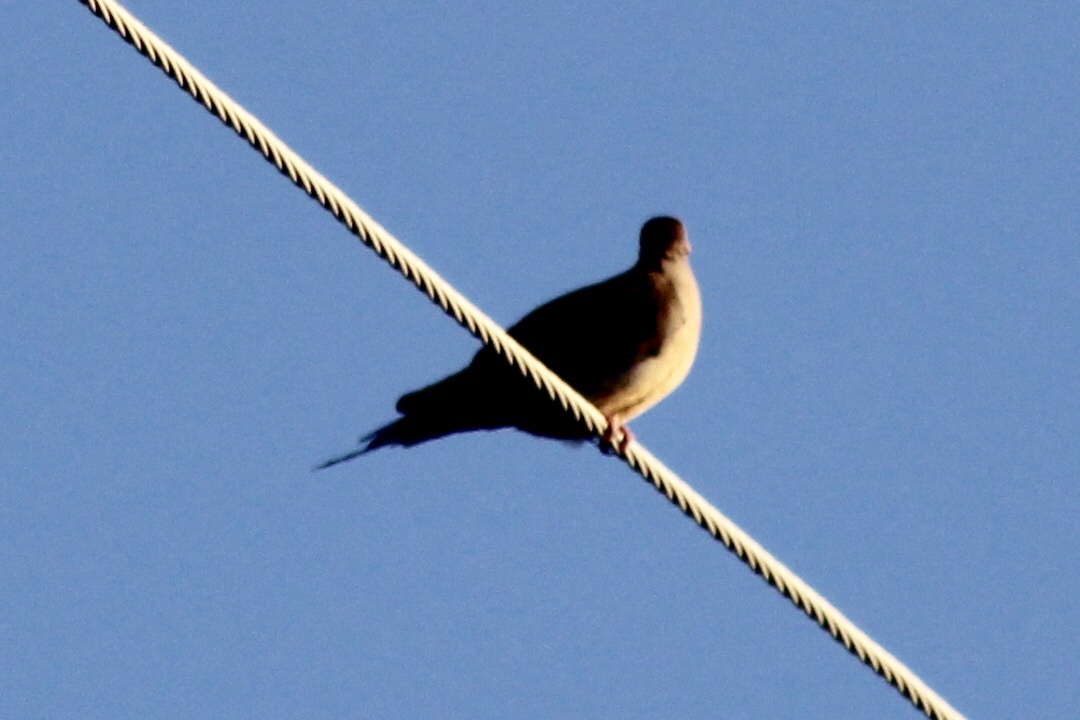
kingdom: Animalia
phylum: Chordata
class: Aves
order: Columbiformes
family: Columbidae
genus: Zenaida
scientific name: Zenaida macroura
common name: Mourning dove
